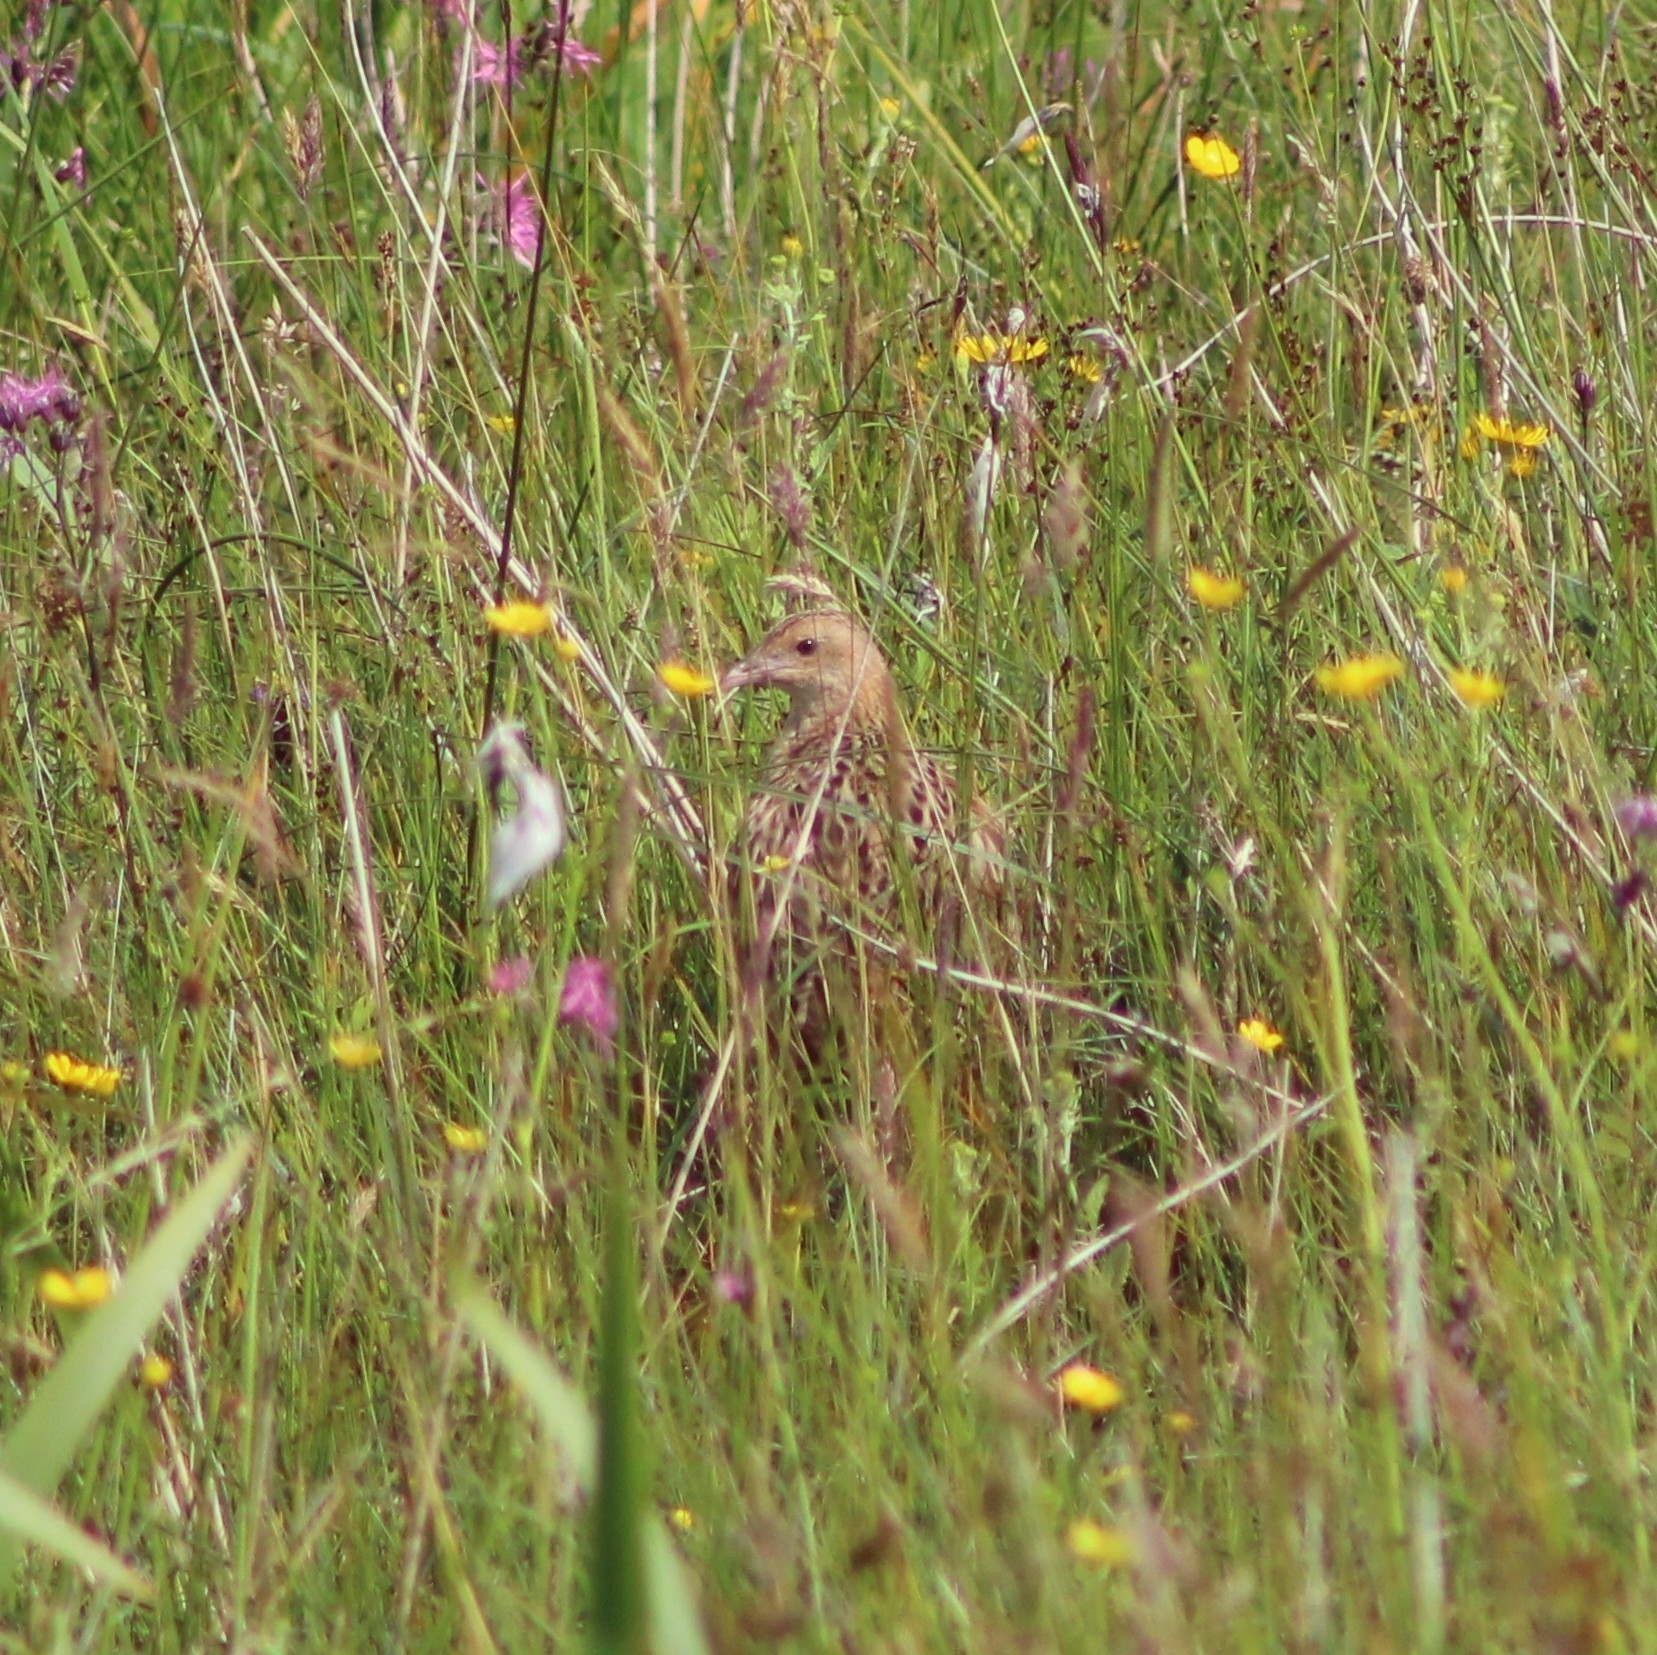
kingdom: Animalia
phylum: Chordata
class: Aves
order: Gruiformes
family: Rallidae
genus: Crex
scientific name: Crex crex
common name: Corn crake
